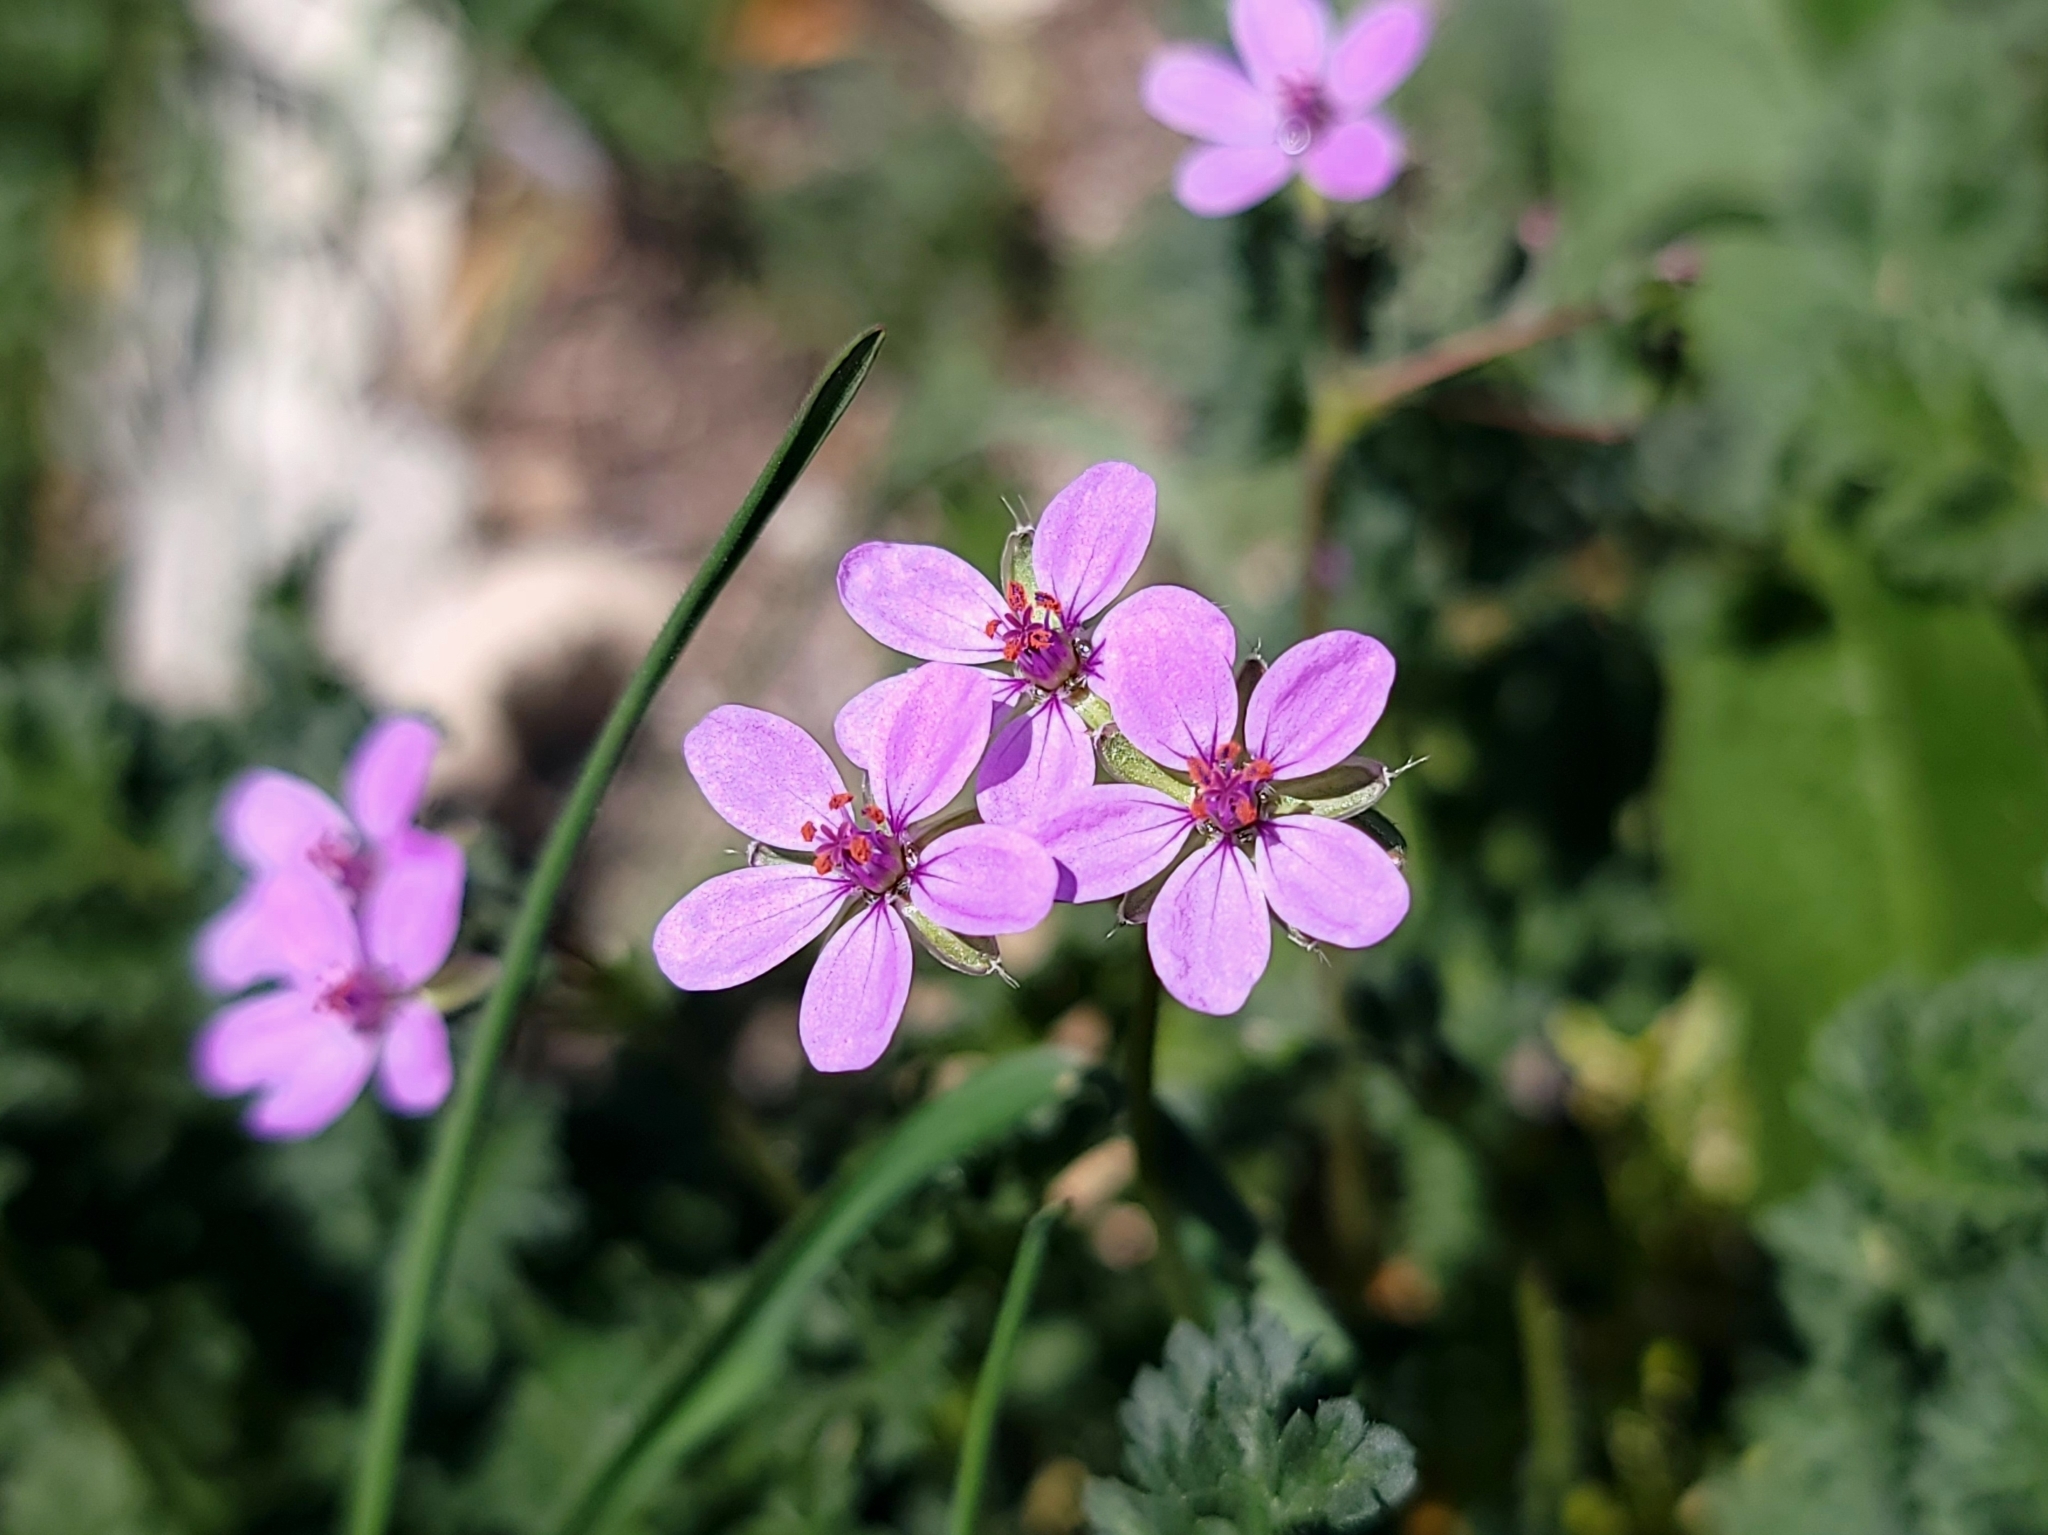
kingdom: Plantae
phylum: Tracheophyta
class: Magnoliopsida
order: Geraniales
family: Geraniaceae
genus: Erodium
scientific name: Erodium cicutarium
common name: Common stork's-bill
